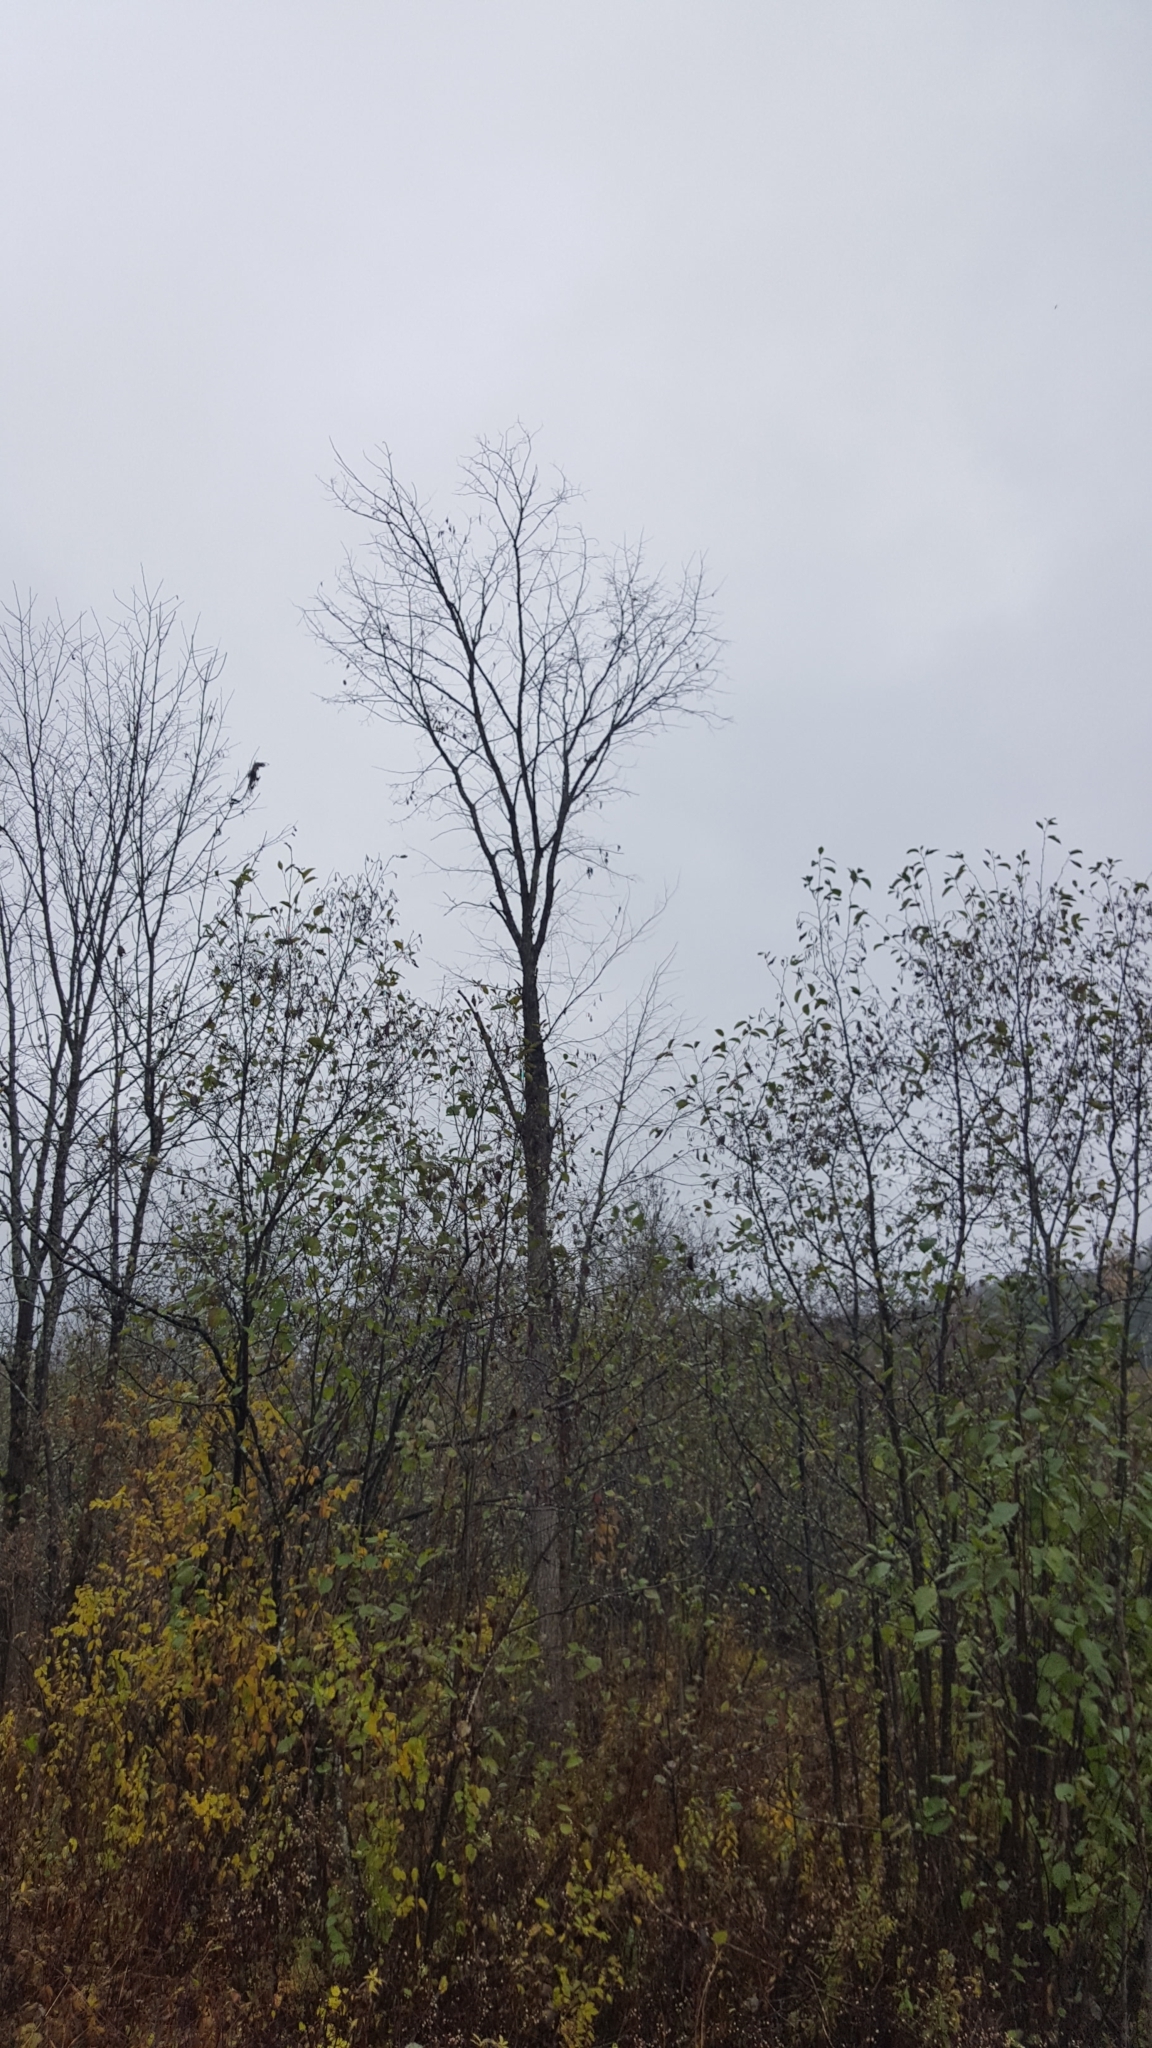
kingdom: Plantae
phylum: Tracheophyta
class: Magnoliopsida
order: Rosales
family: Ulmaceae
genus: Ulmus
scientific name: Ulmus americana
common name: American elm
